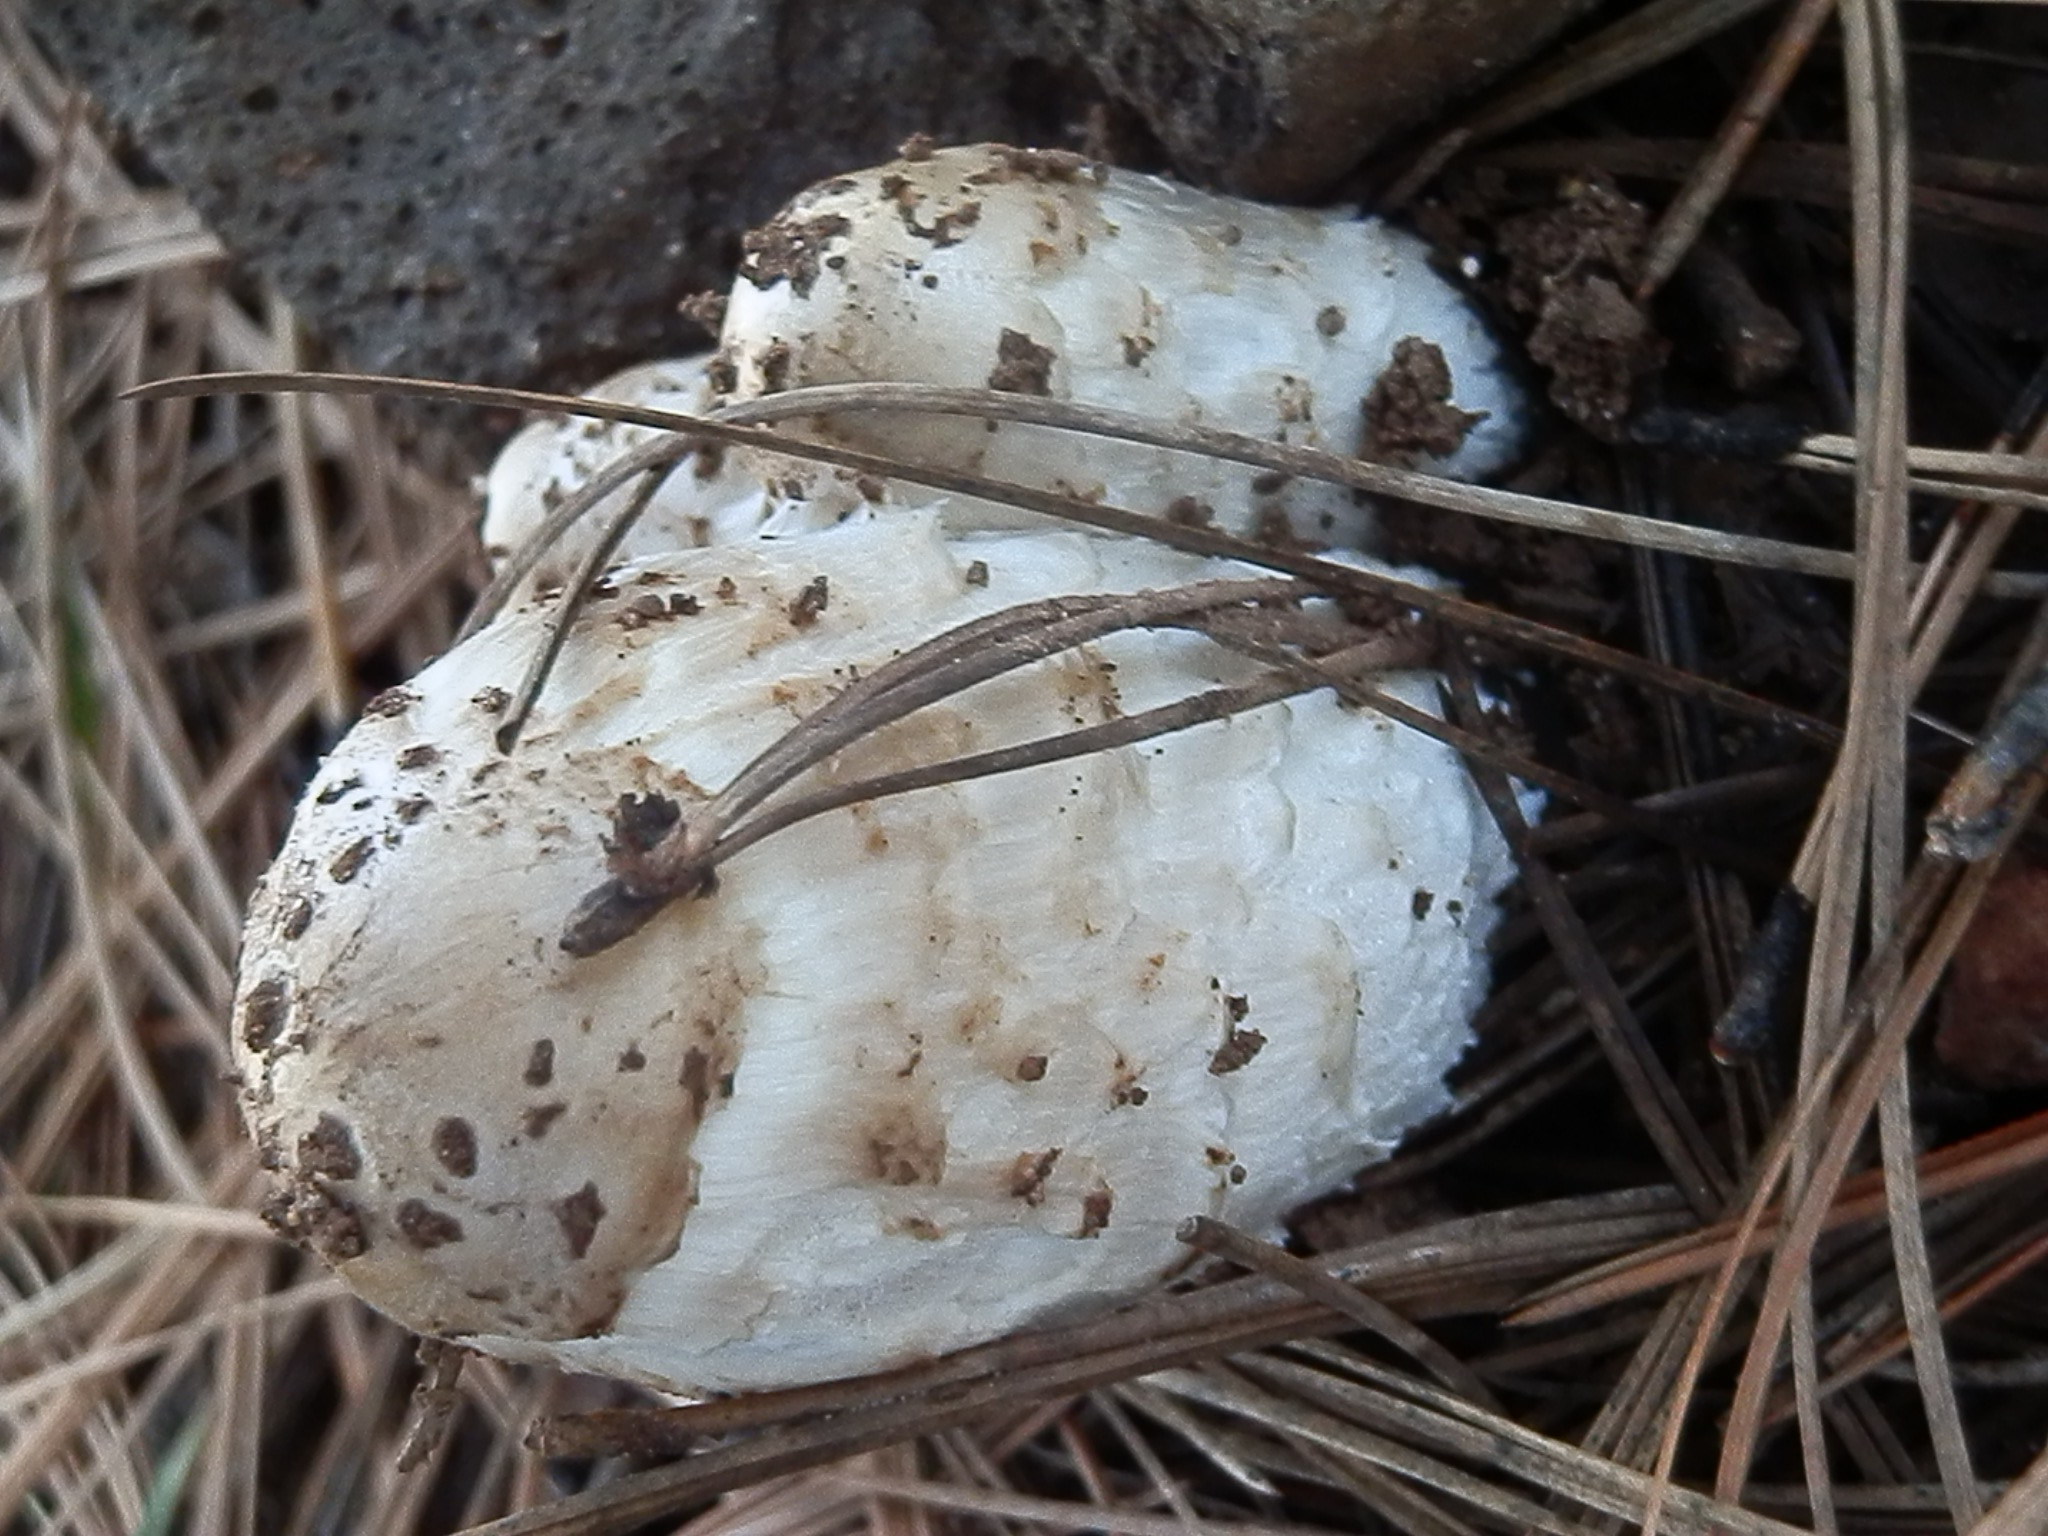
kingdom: Fungi
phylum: Basidiomycota
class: Agaricomycetes
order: Agaricales
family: Agaricaceae
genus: Coprinus
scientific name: Coprinus comatus
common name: Lawyer's wig
